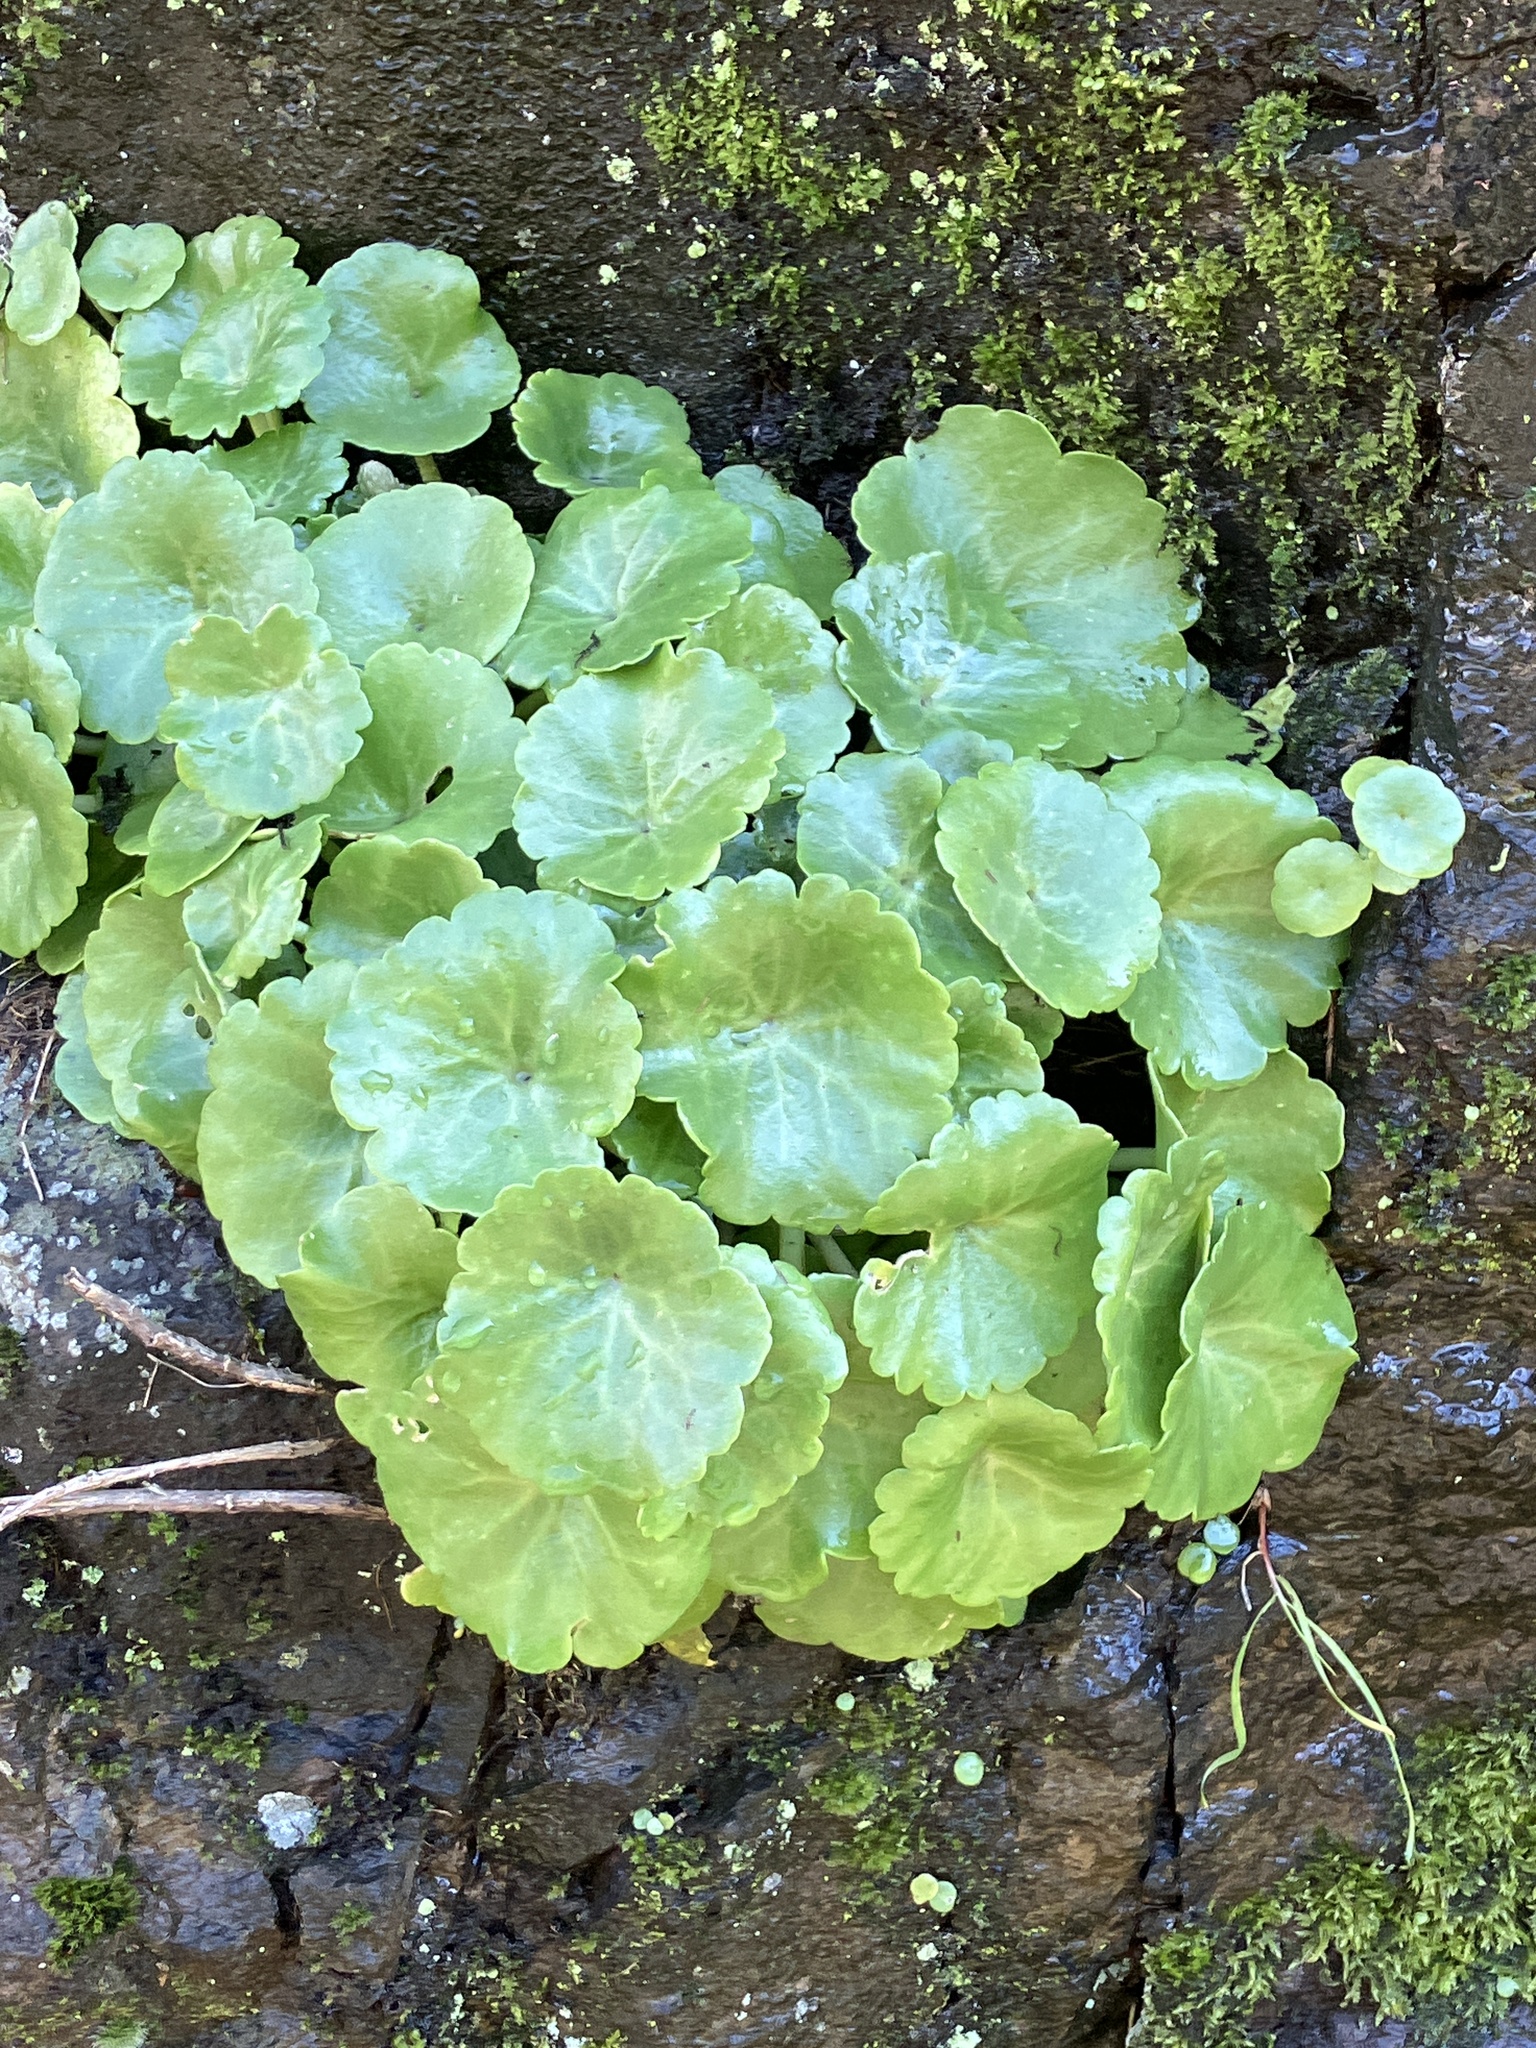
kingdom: Plantae
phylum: Tracheophyta
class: Magnoliopsida
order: Saxifragales
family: Crassulaceae
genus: Umbilicus
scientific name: Umbilicus rupestris
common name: Navelwort
